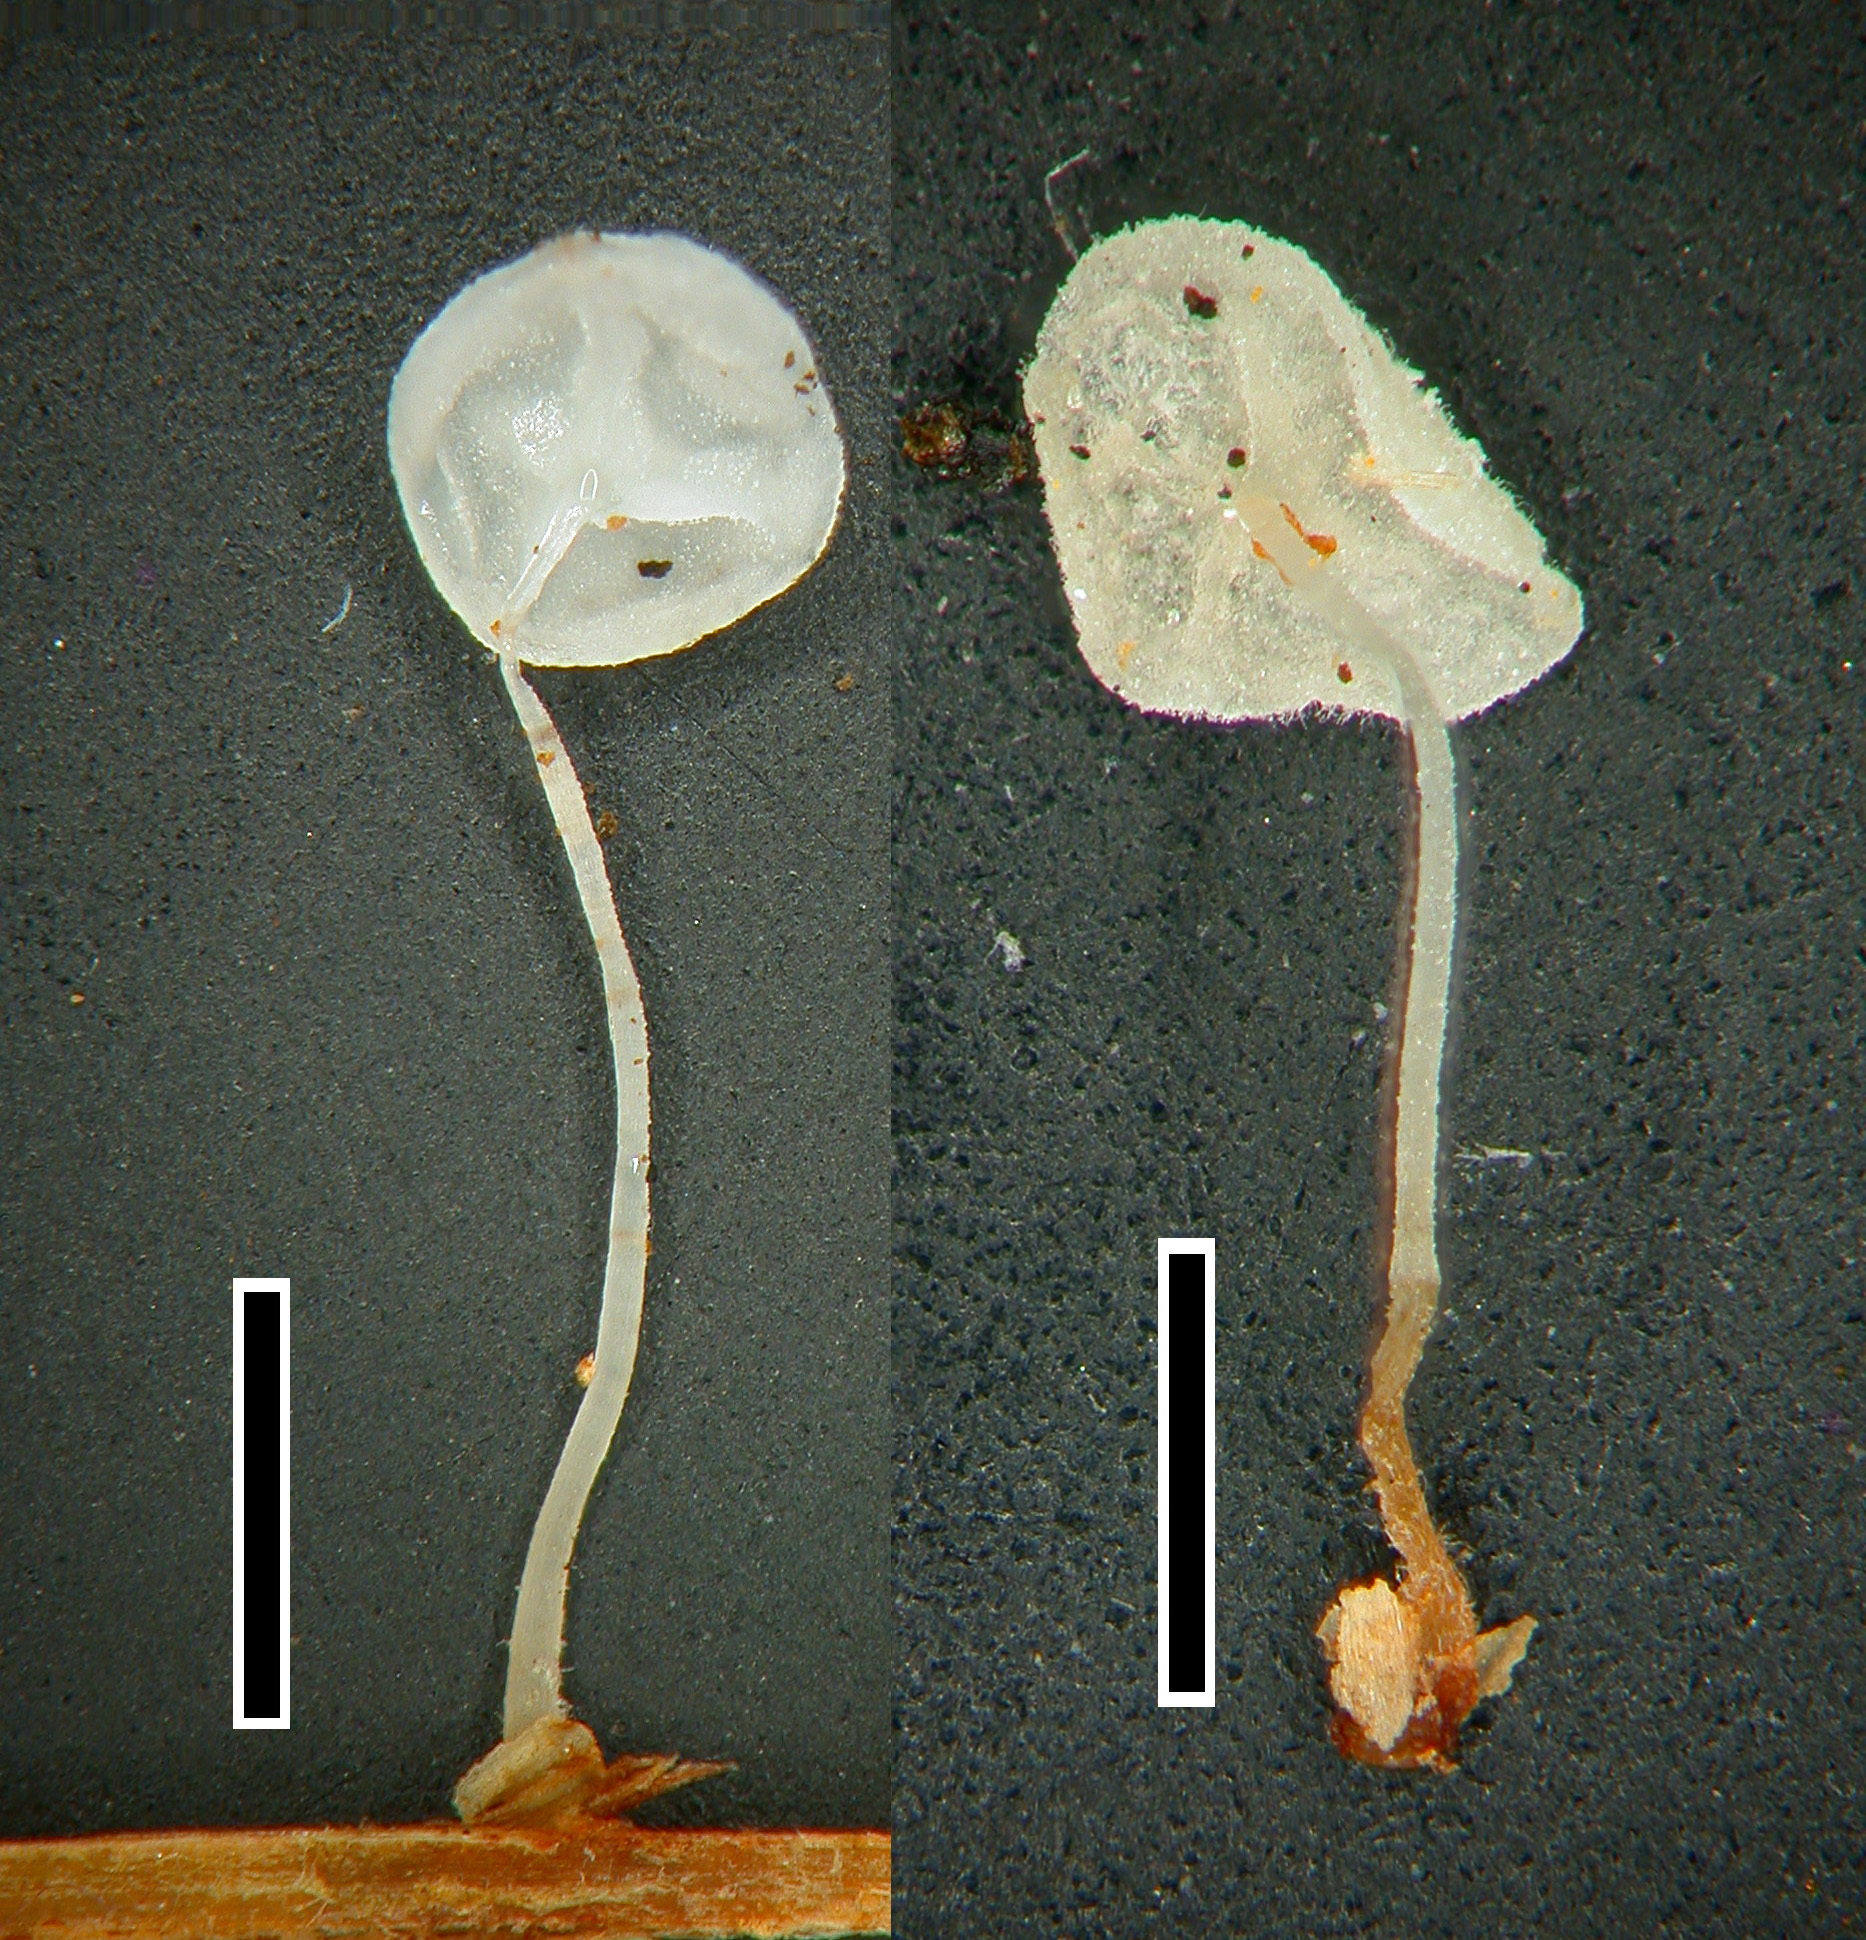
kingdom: Fungi
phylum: Basidiomycota
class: Agaricomycetes
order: Agaricales
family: Physalacriaceae
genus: Gloiocephala
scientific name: Gloiocephala phormiorum
